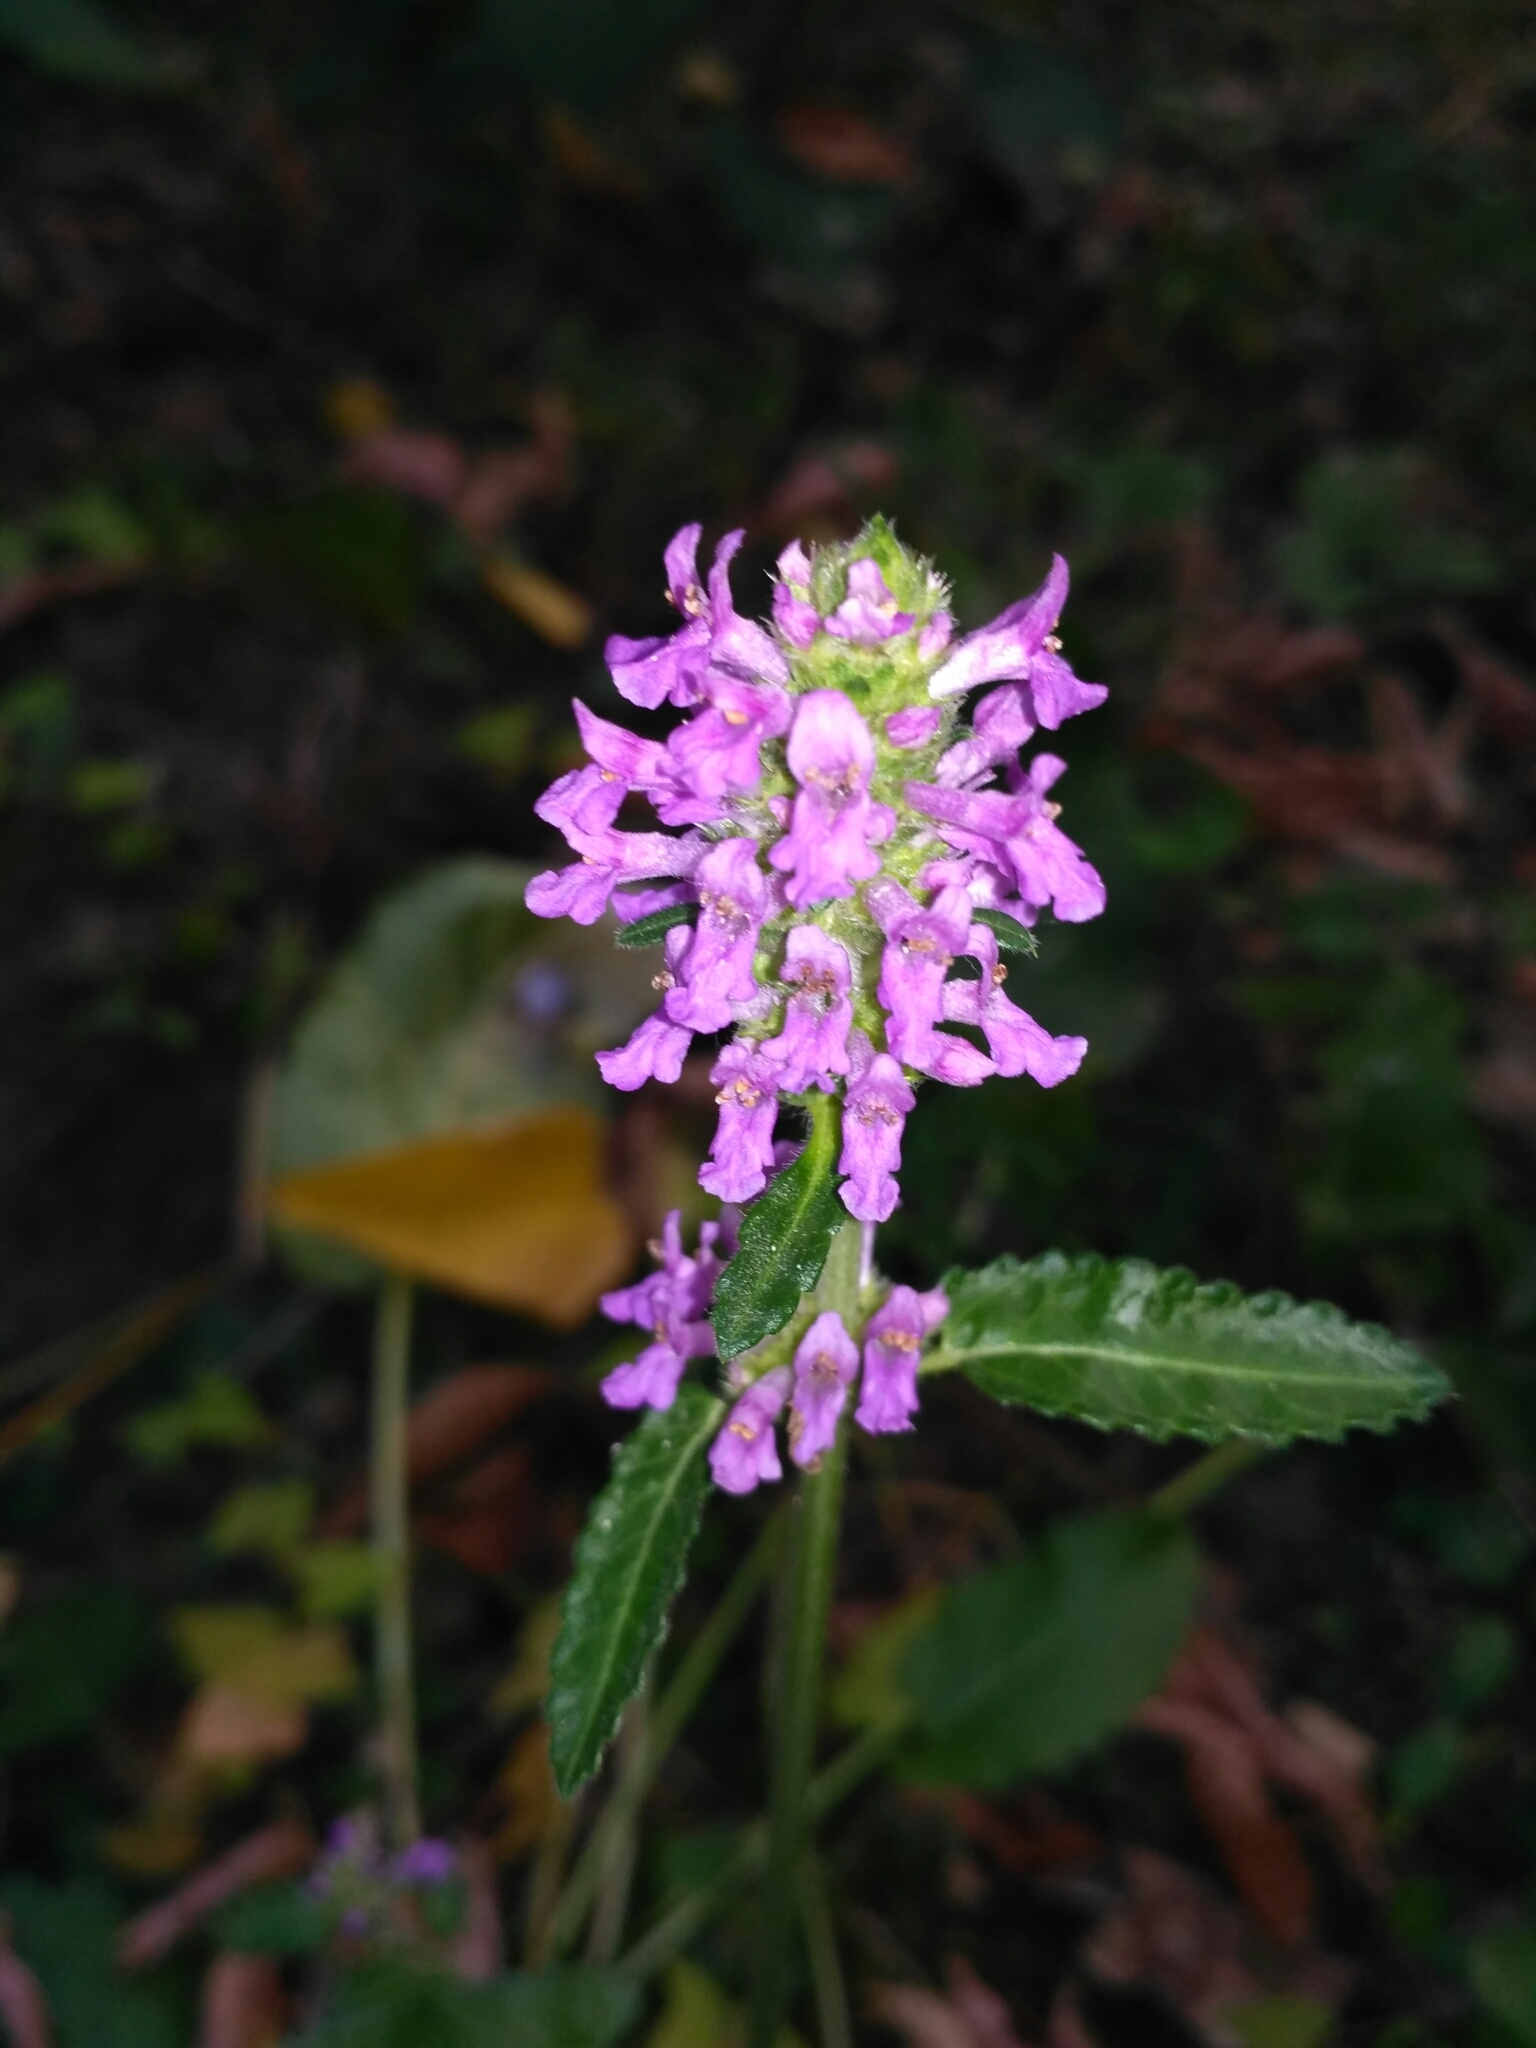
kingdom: Plantae
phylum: Tracheophyta
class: Magnoliopsida
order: Lamiales
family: Lamiaceae
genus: Betonica
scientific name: Betonica officinalis
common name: Bishop's-wort
